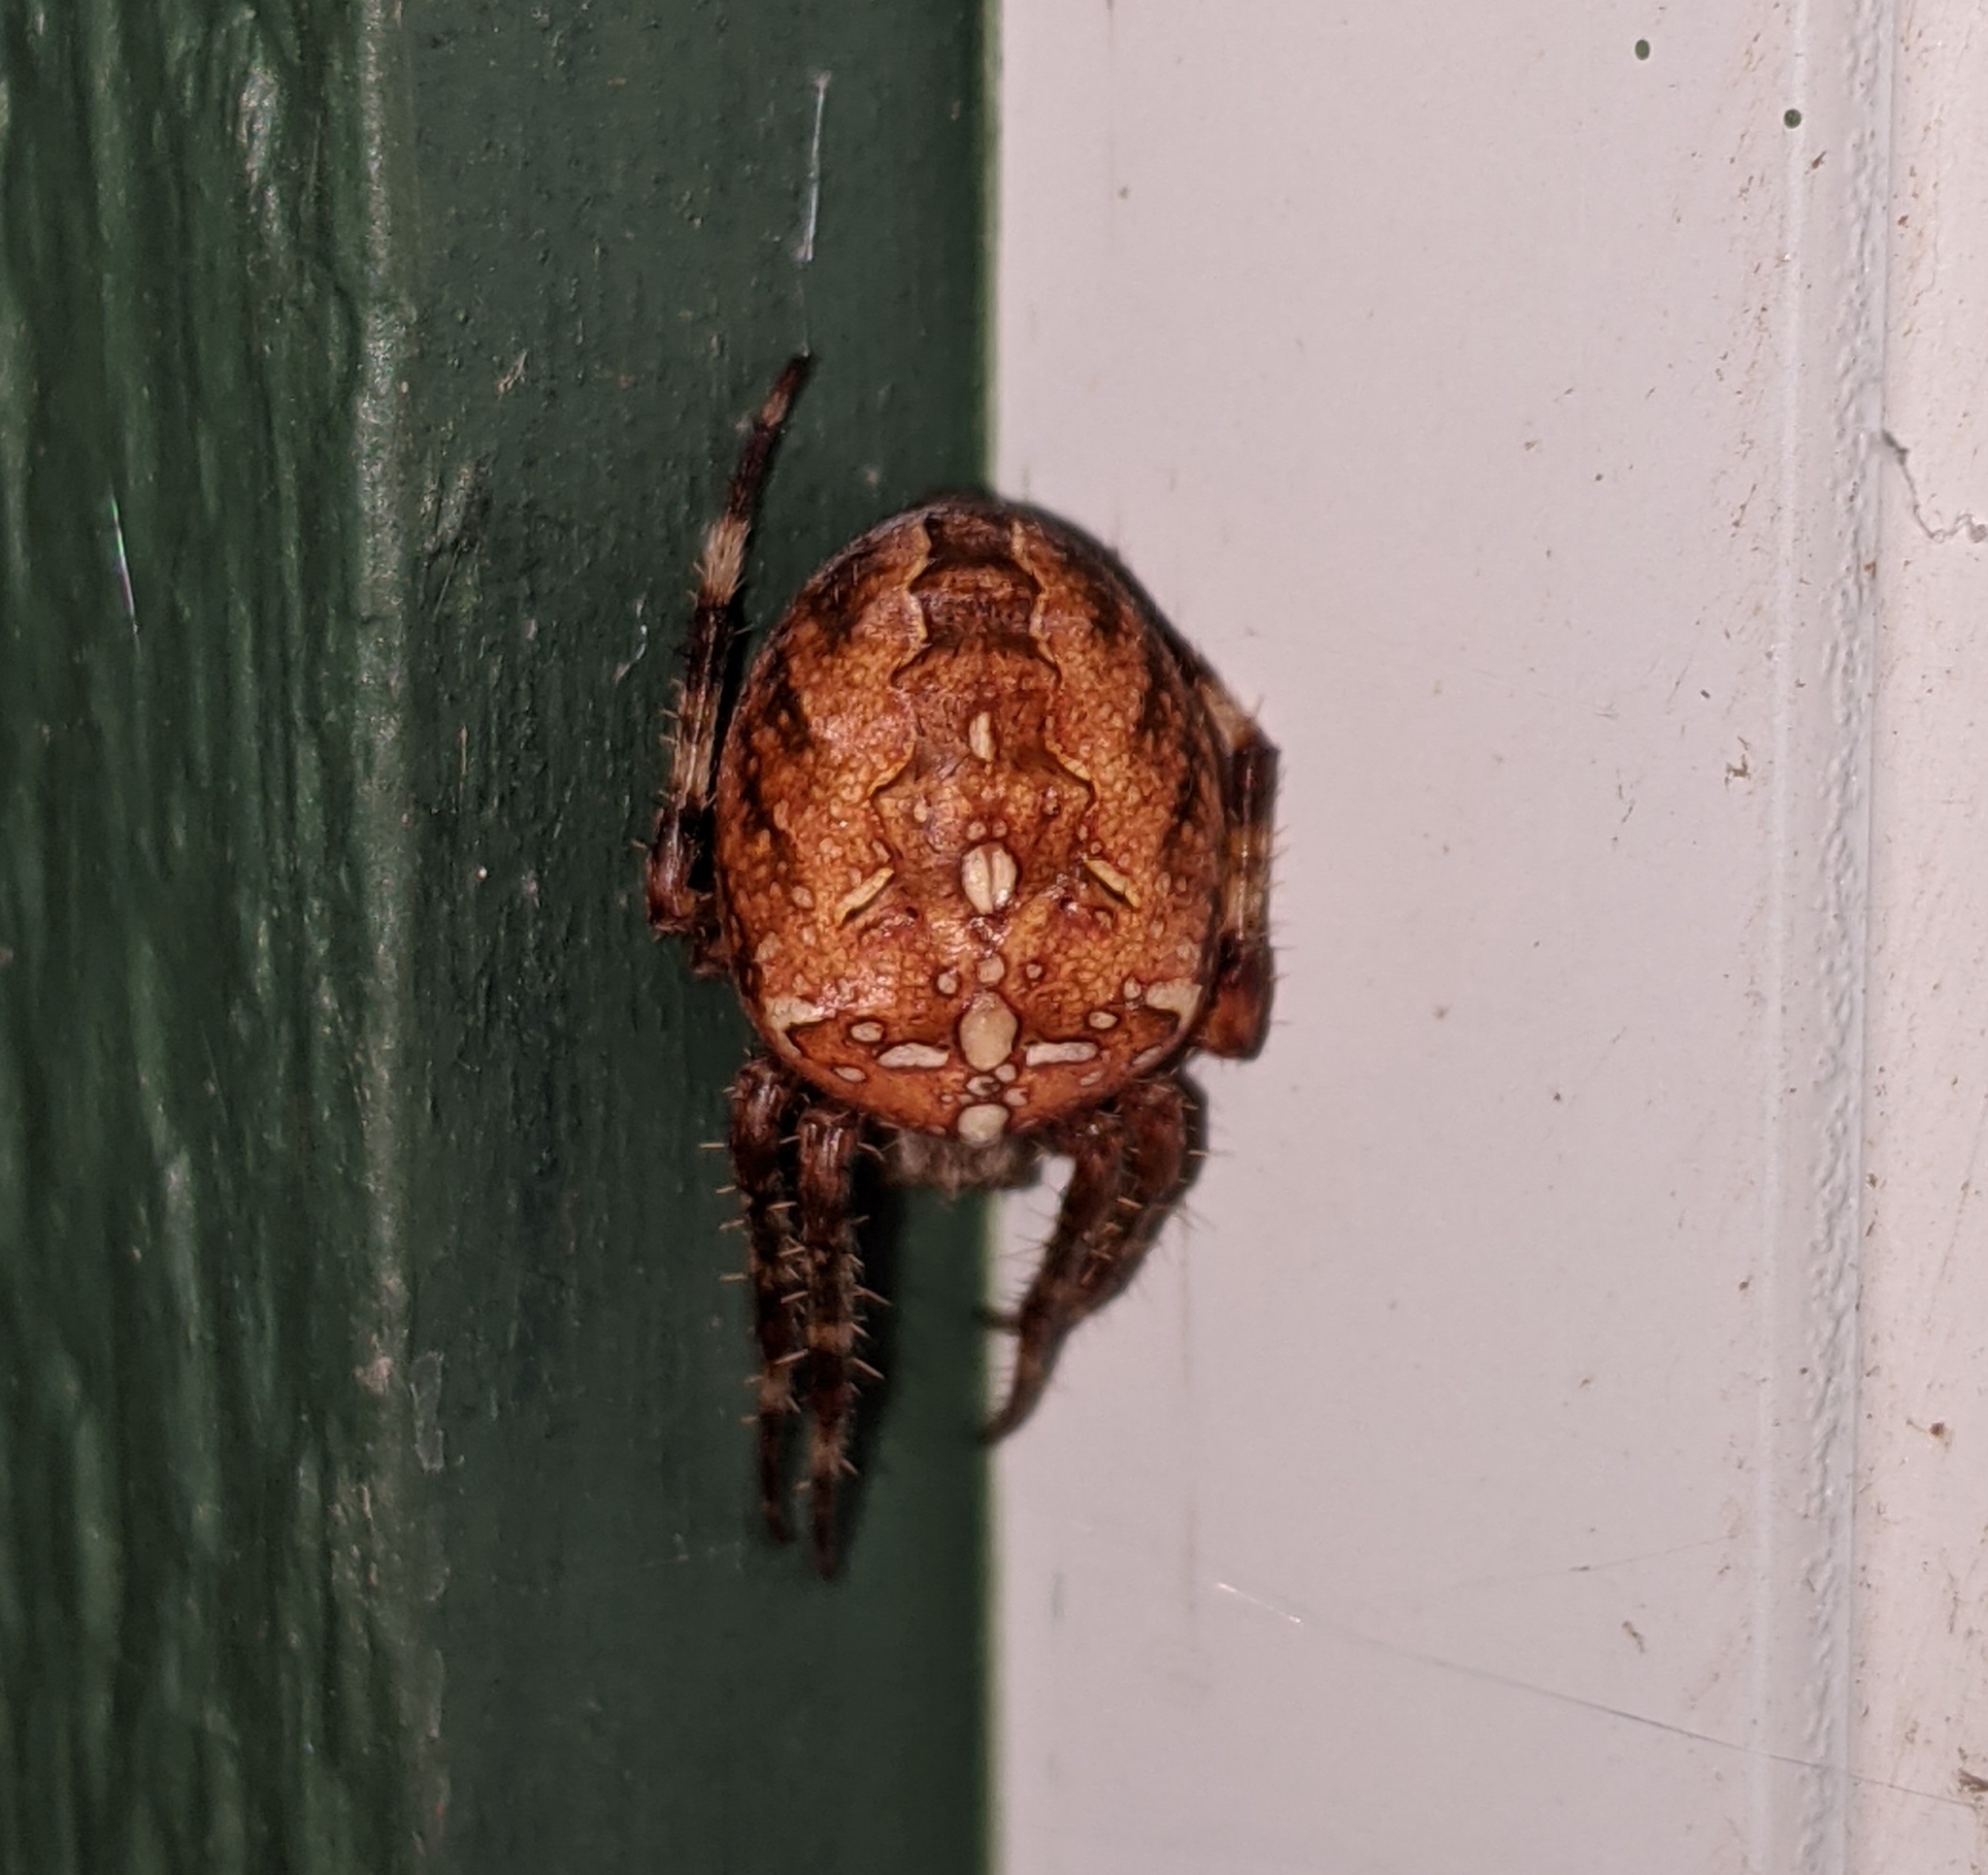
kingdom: Animalia
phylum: Arthropoda
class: Arachnida
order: Araneae
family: Araneidae
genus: Araneus
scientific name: Araneus diadematus
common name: Cross orbweaver
